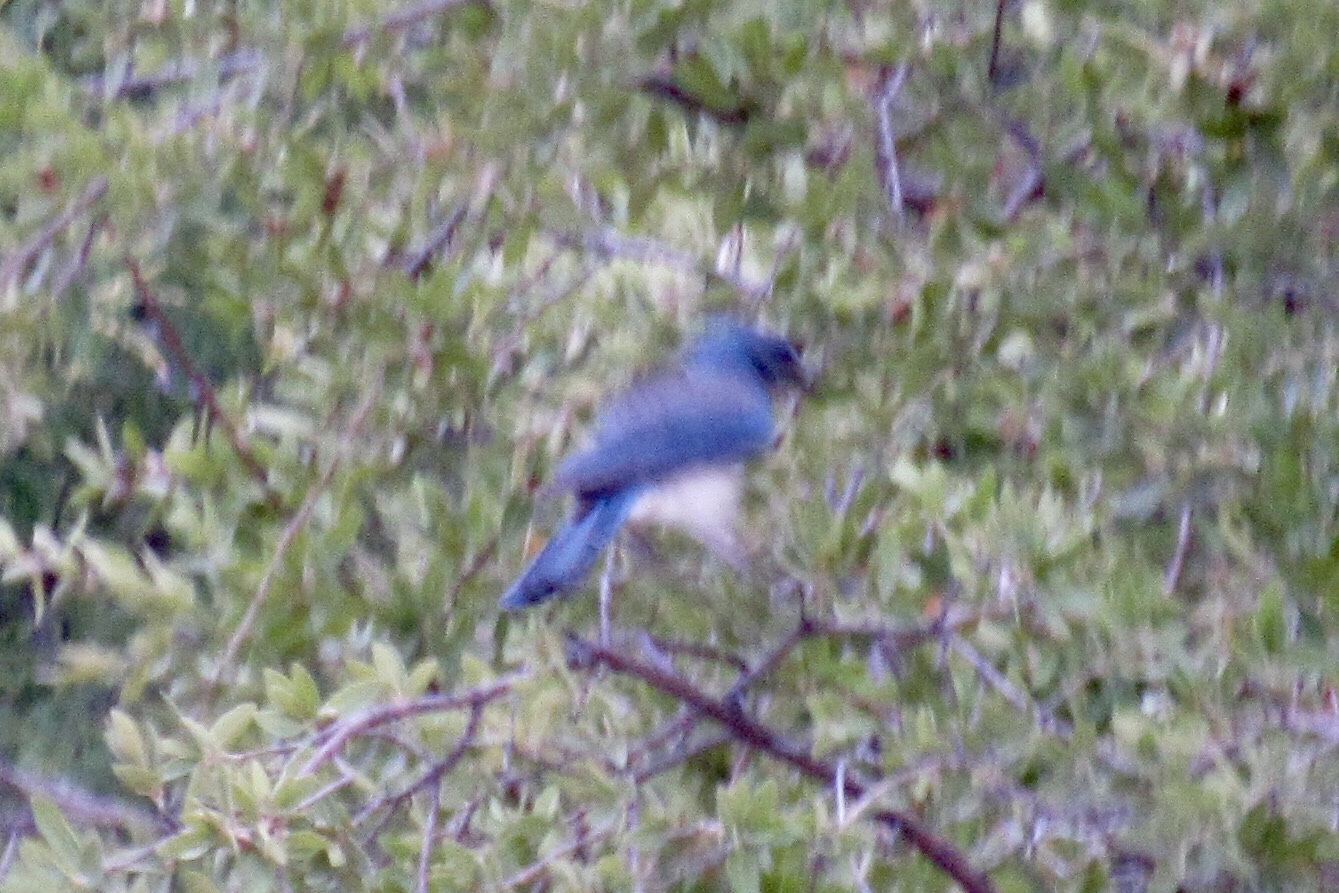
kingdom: Animalia
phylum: Chordata
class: Aves
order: Passeriformes
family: Corvidae
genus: Aphelocoma
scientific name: Aphelocoma wollweberi
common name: Mexican jay
